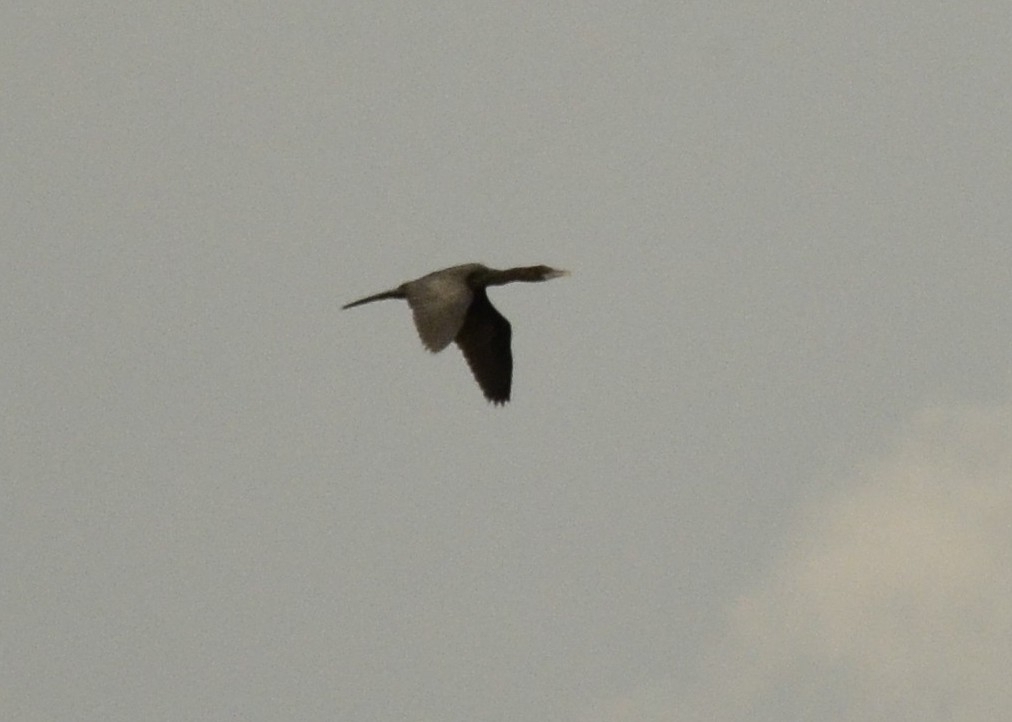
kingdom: Animalia
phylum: Chordata
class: Aves
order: Suliformes
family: Phalacrocoracidae
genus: Microcarbo
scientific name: Microcarbo niger
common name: Little cormorant
